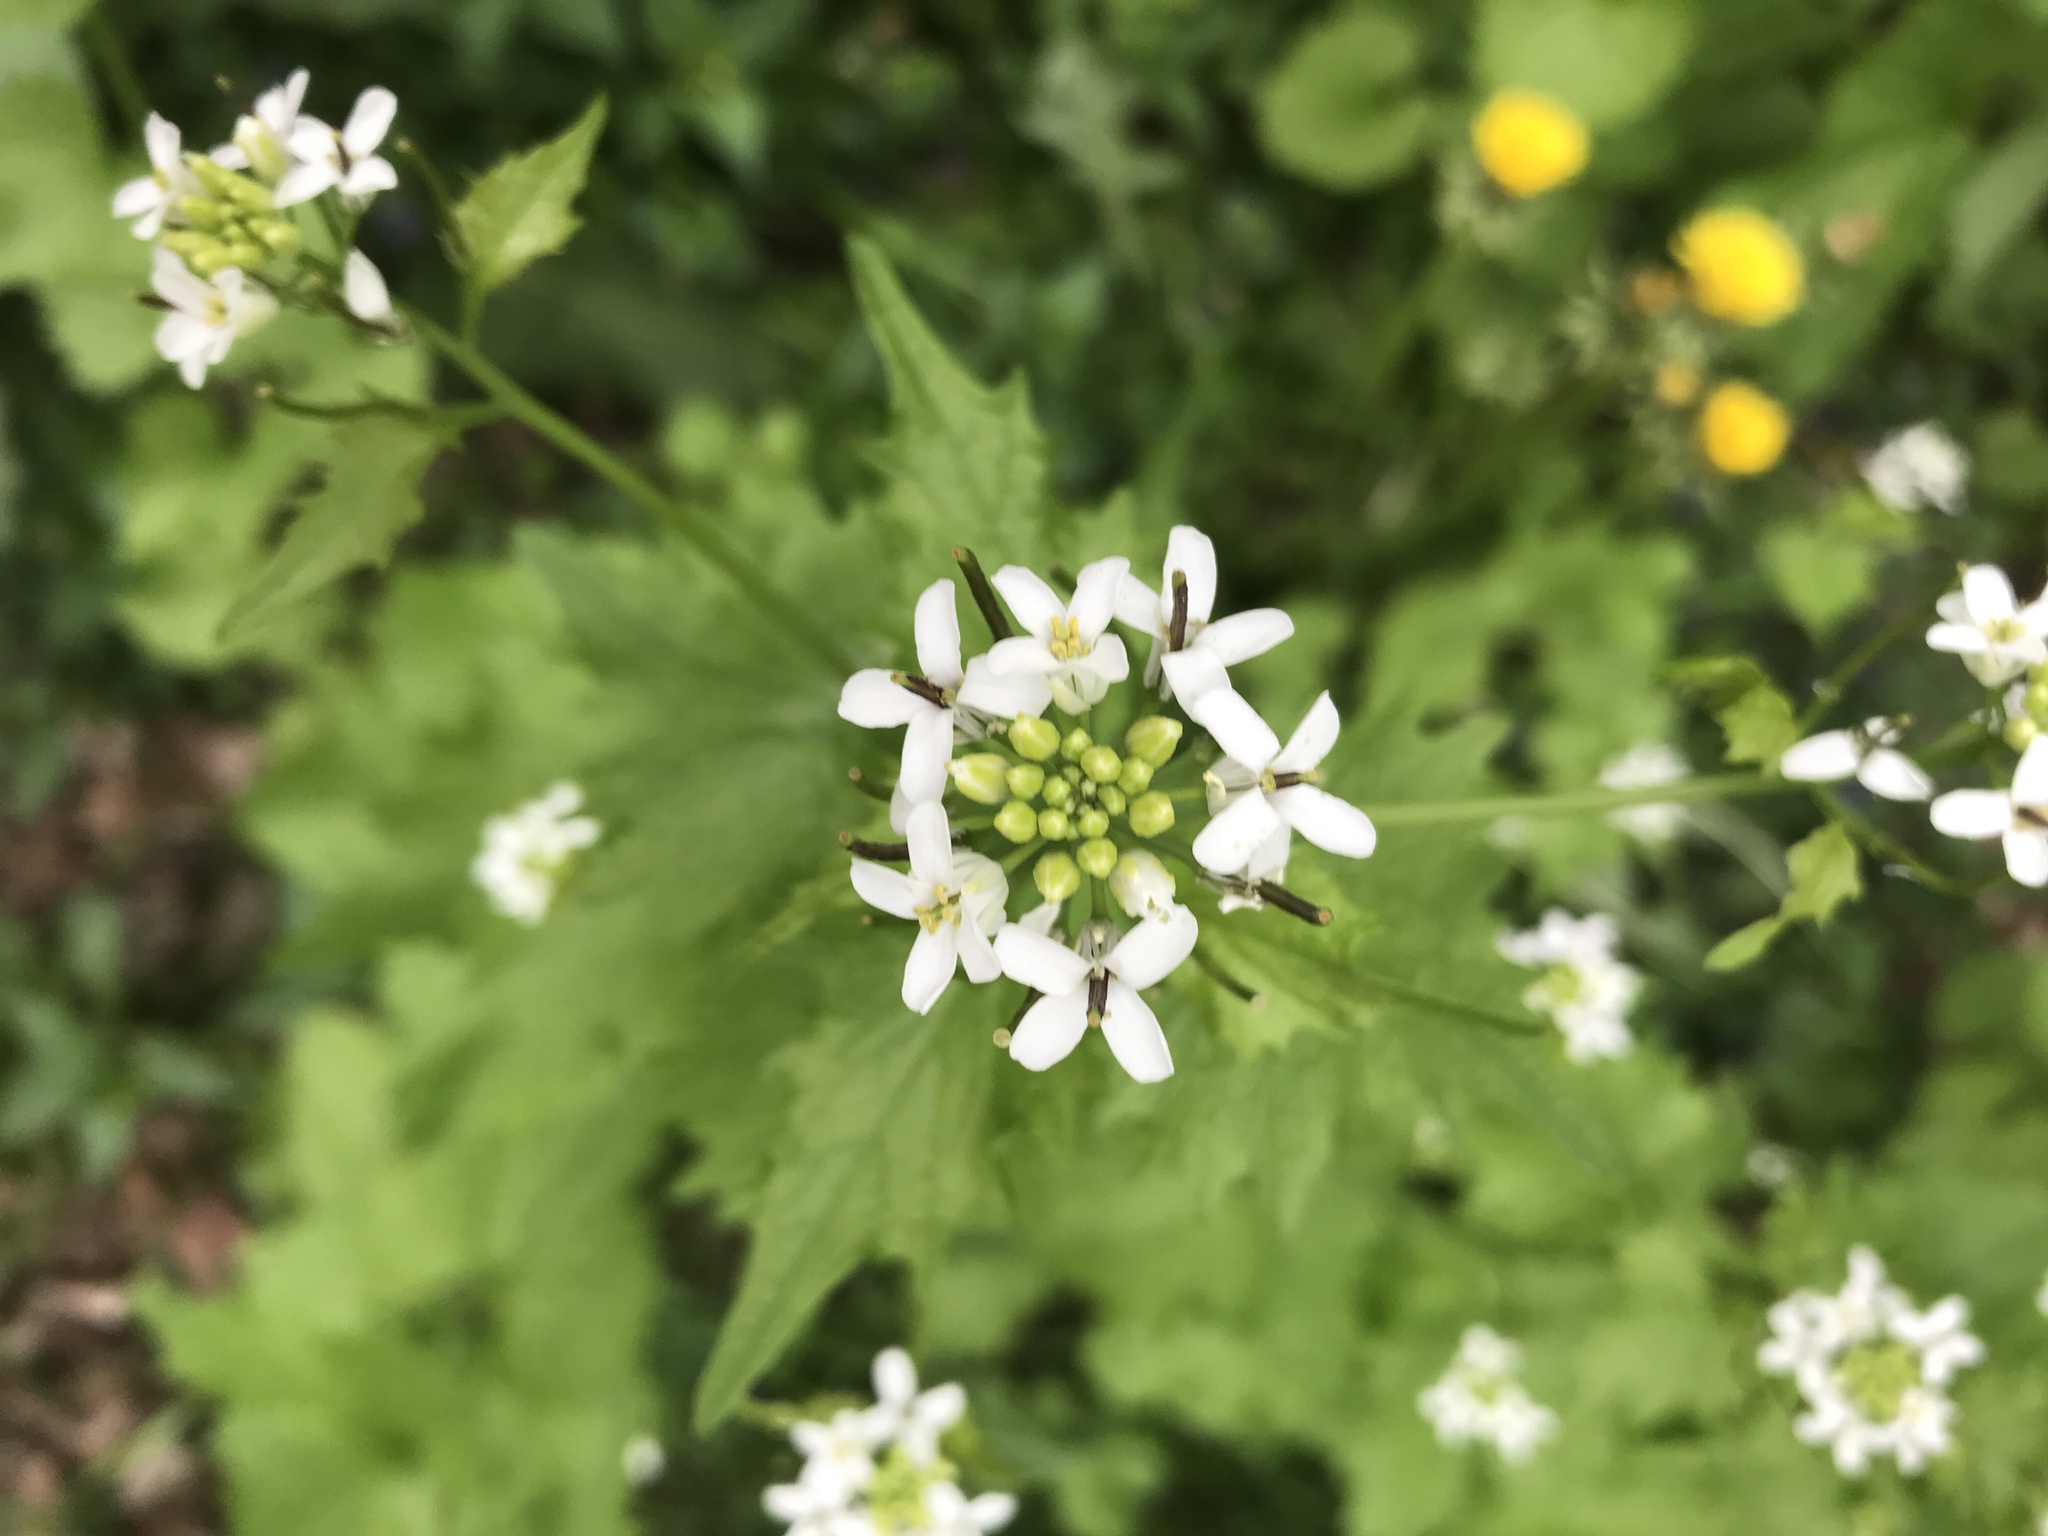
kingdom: Plantae
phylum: Tracheophyta
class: Magnoliopsida
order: Brassicales
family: Brassicaceae
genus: Alliaria
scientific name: Alliaria petiolata
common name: Garlic mustard
